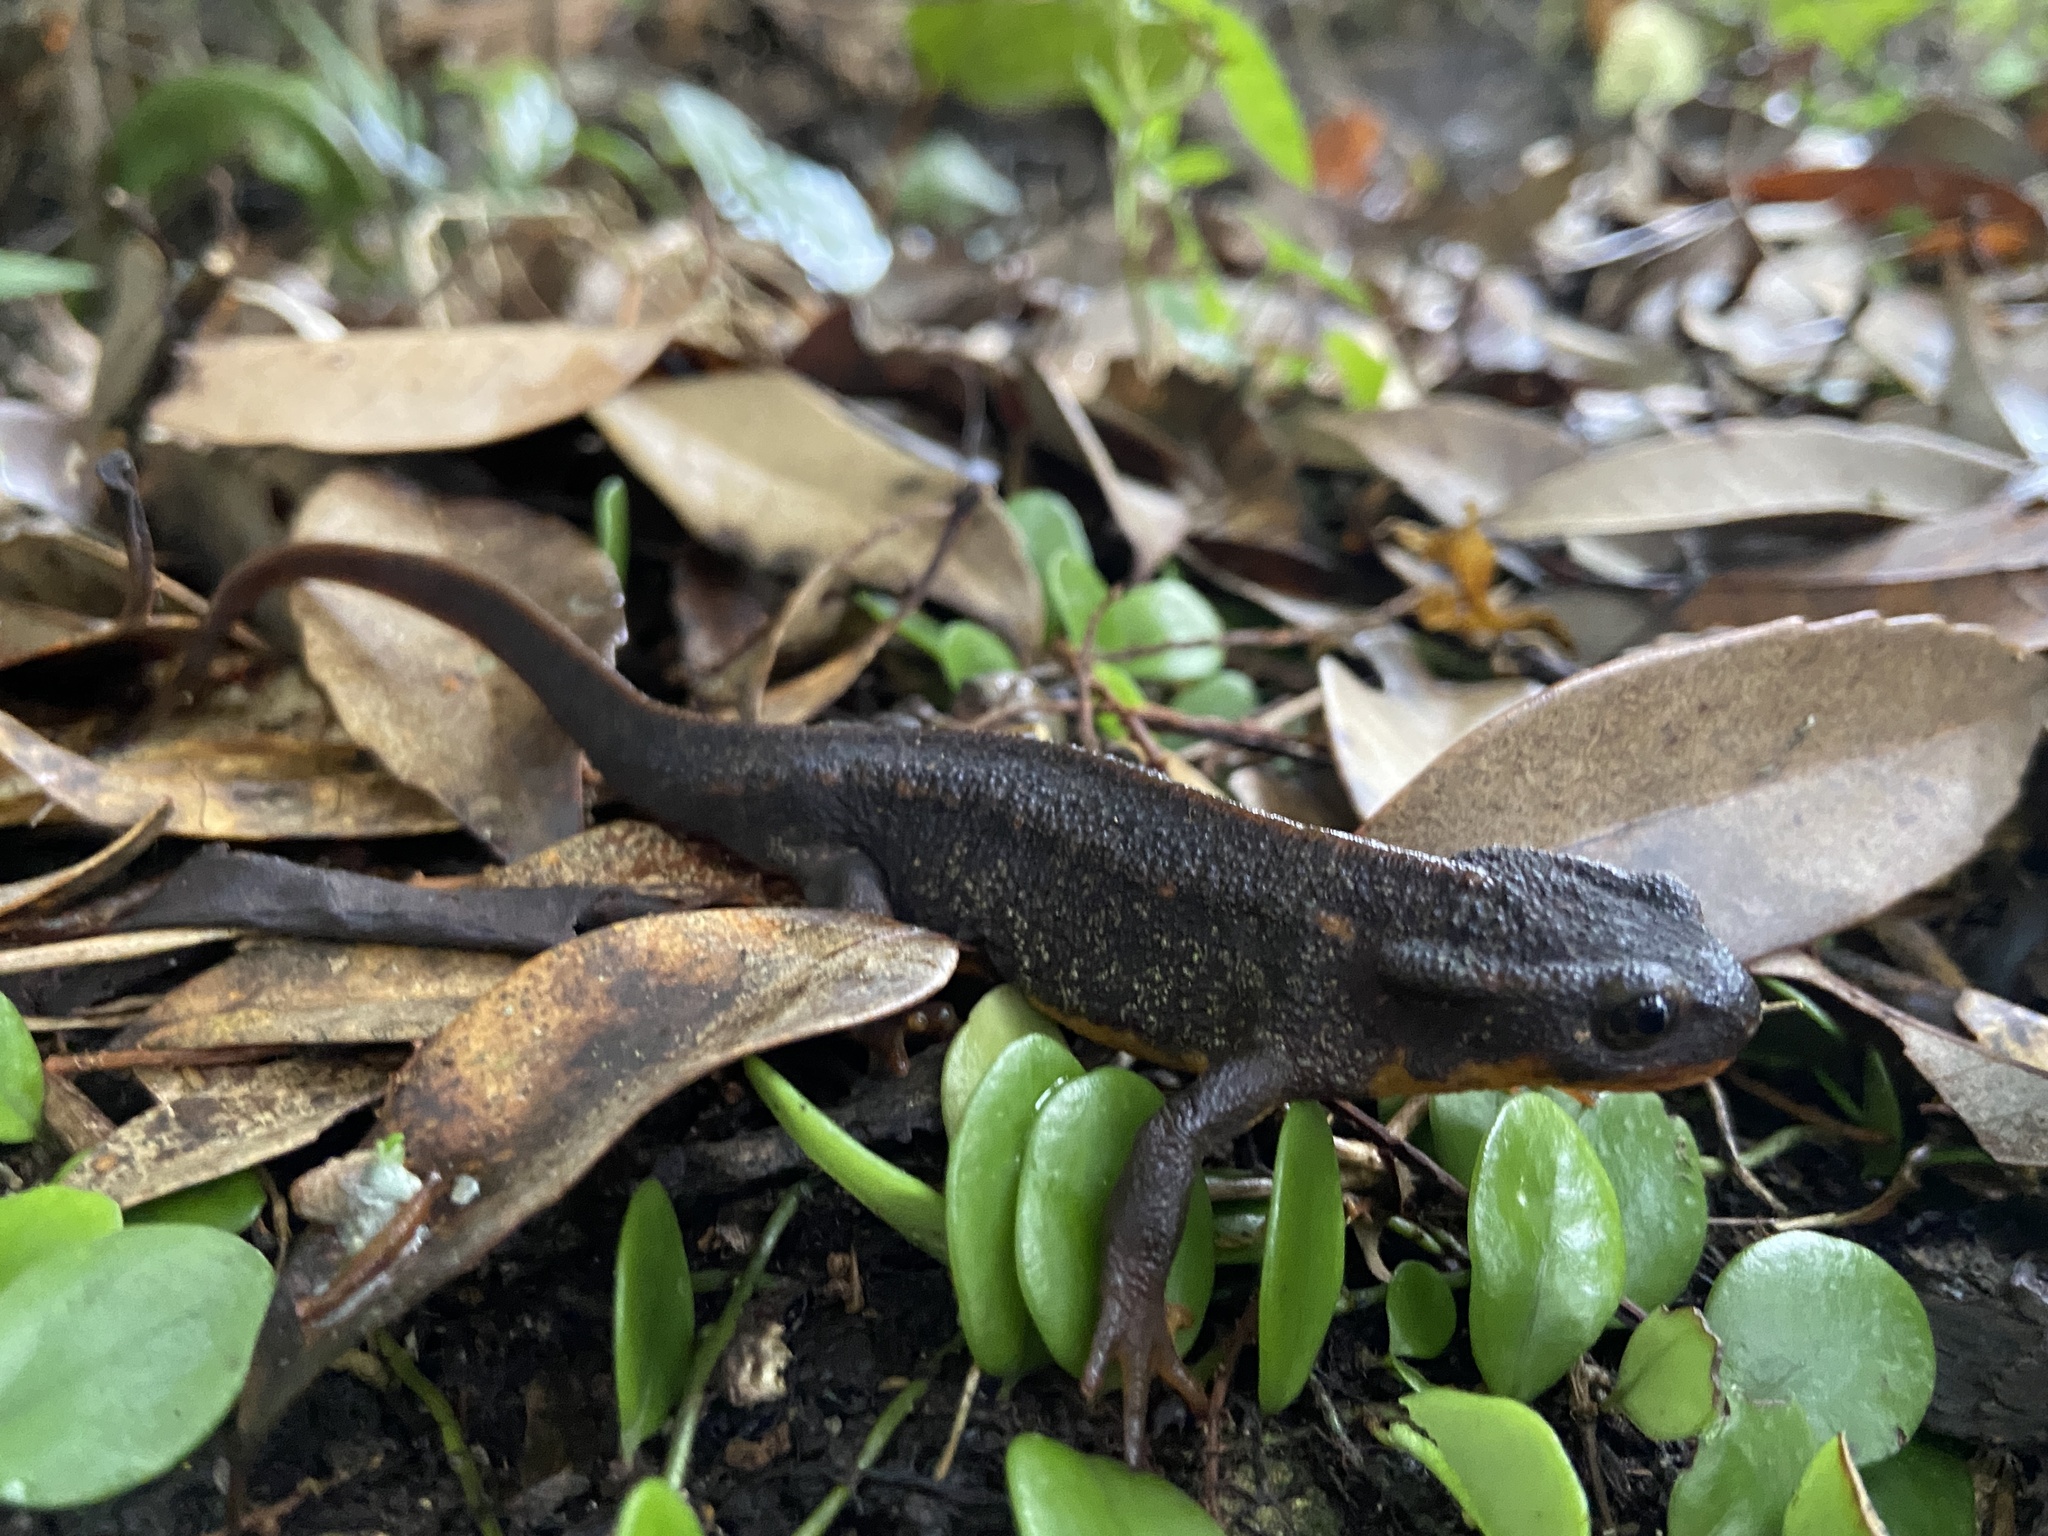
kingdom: Animalia
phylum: Chordata
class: Amphibia
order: Caudata
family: Salamandridae
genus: Cynops
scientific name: Cynops ensicauda
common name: Sword-tailed newt
